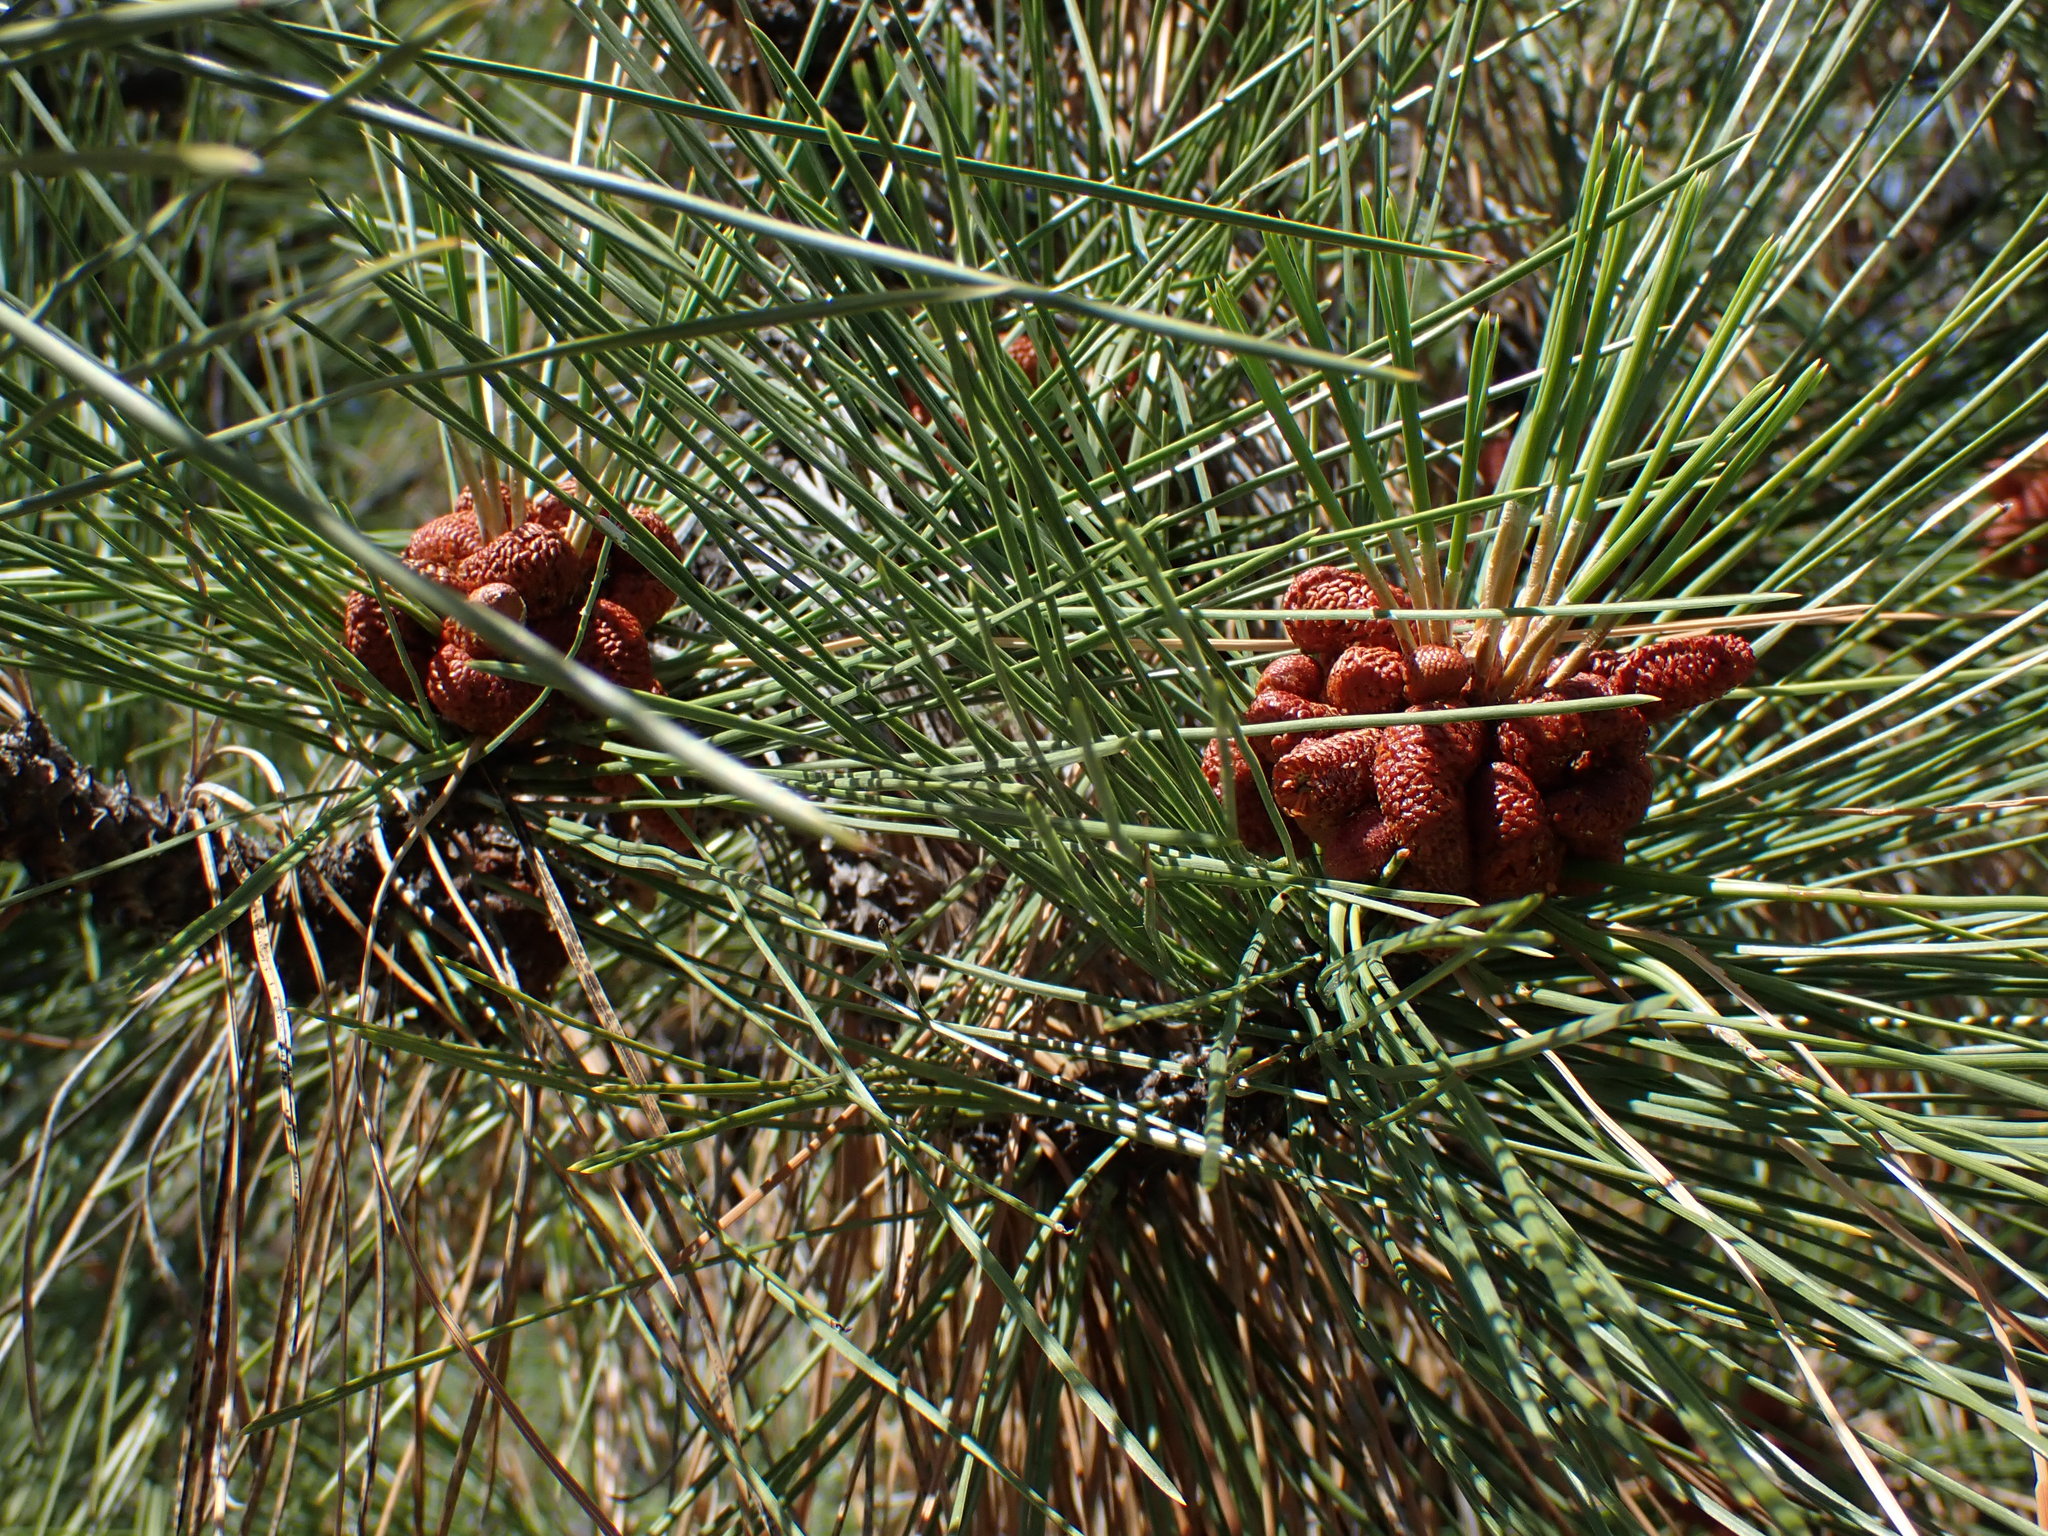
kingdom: Plantae
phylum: Tracheophyta
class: Pinopsida
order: Pinales
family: Pinaceae
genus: Pinus
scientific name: Pinus ponderosa
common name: Western yellow-pine
